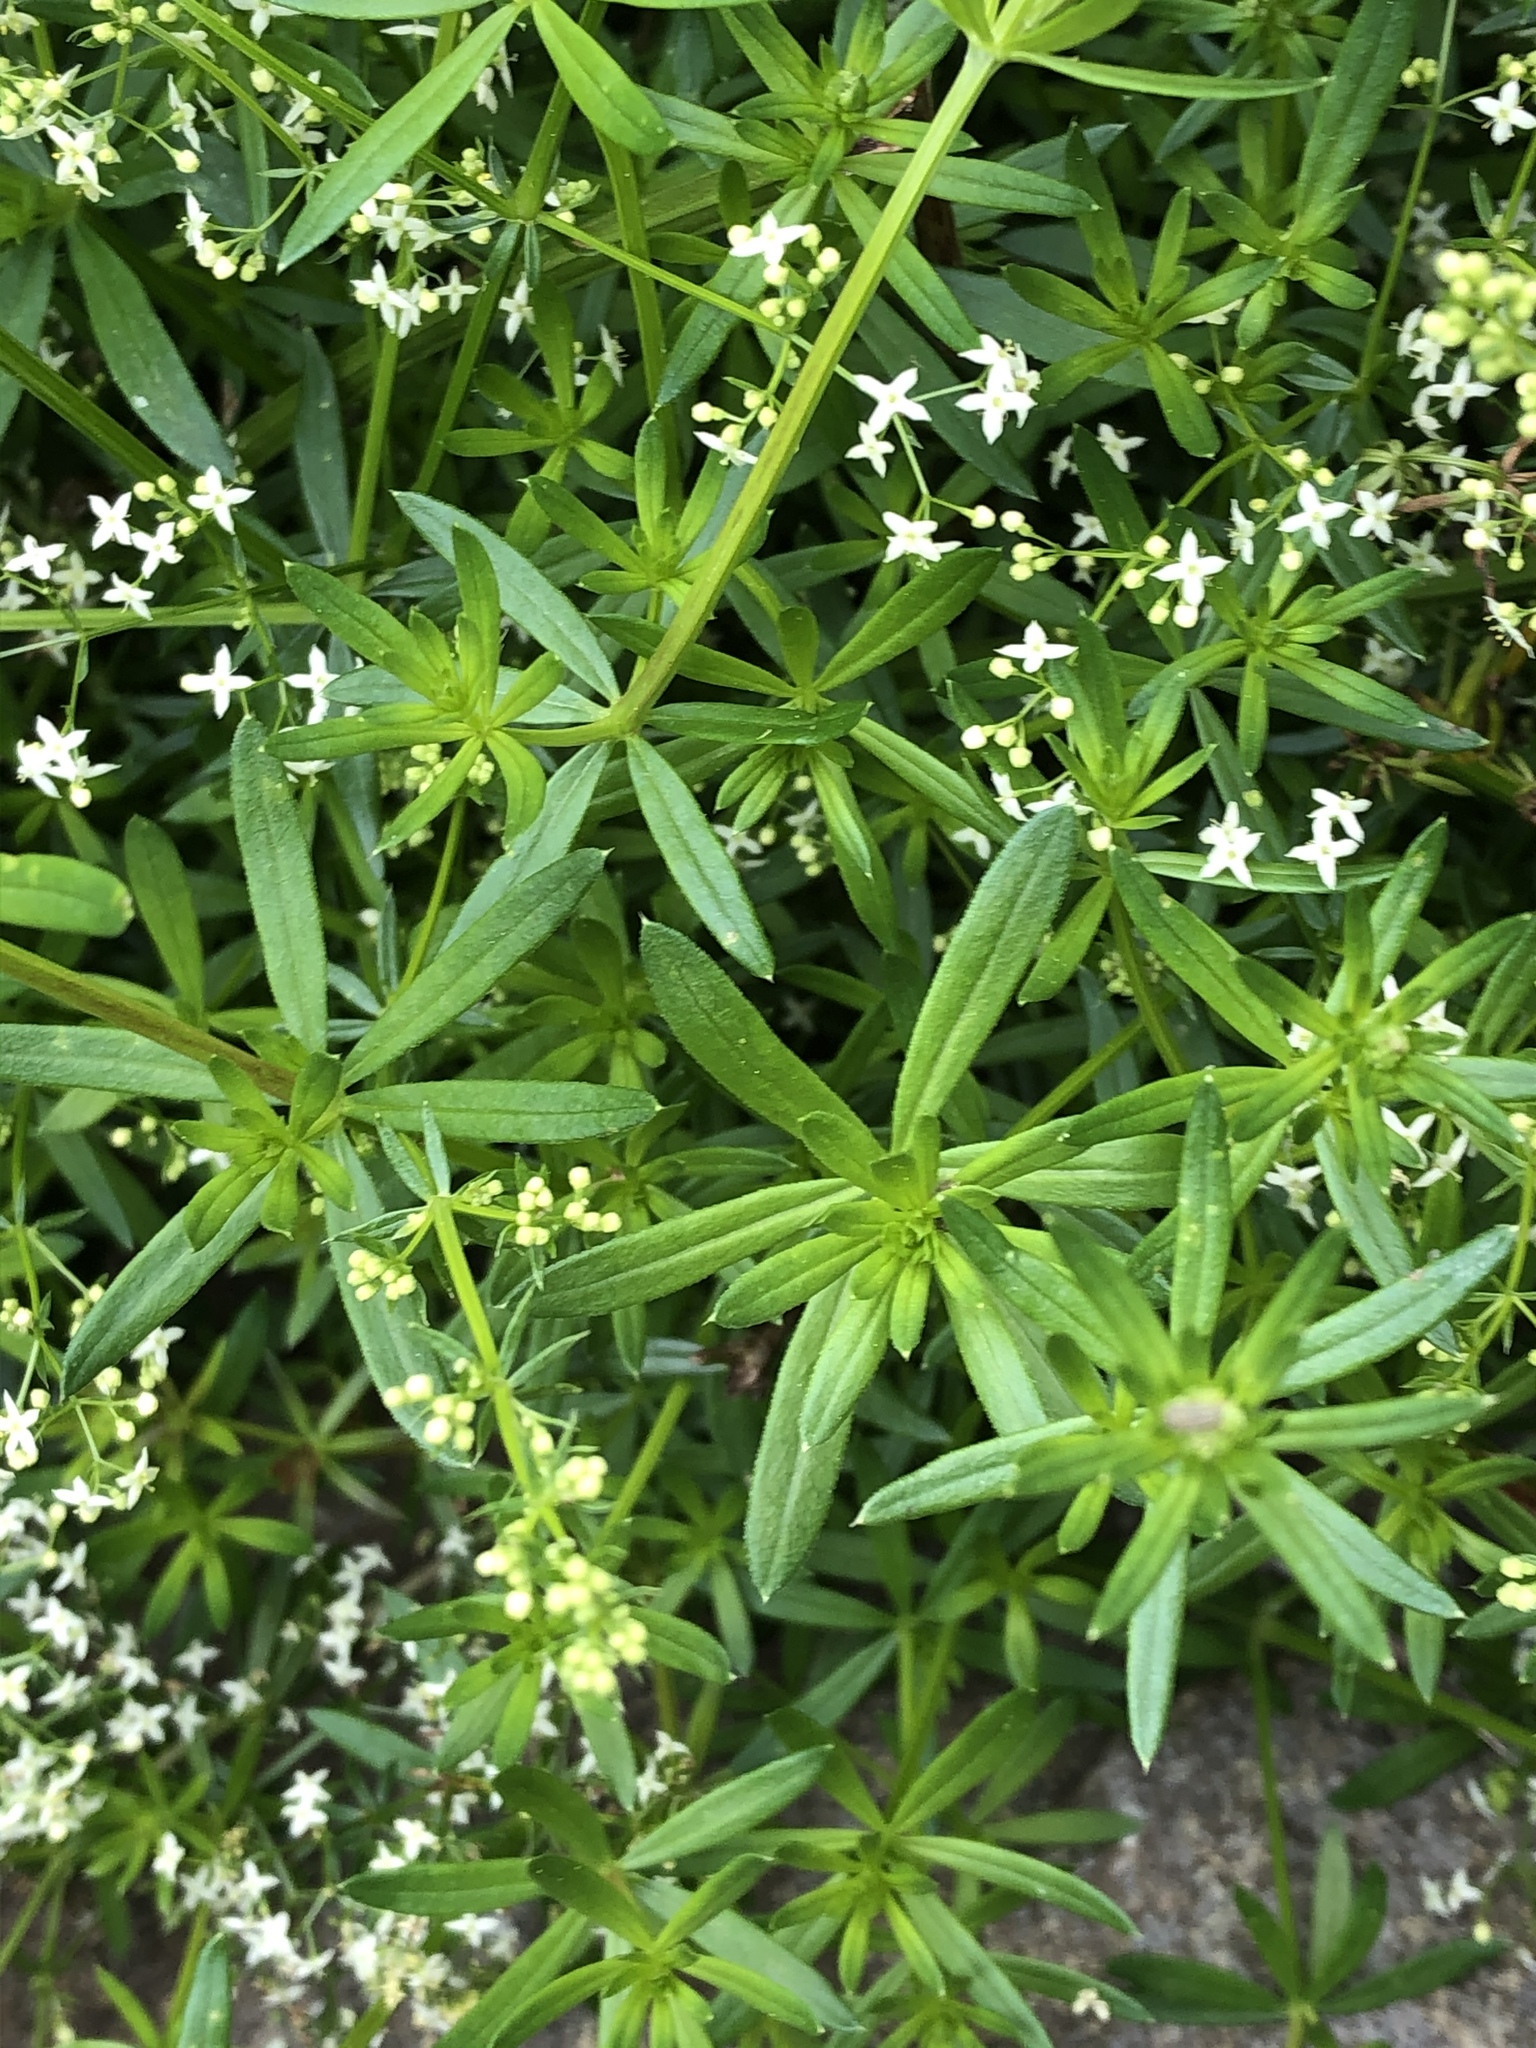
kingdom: Plantae
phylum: Tracheophyta
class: Magnoliopsida
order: Gentianales
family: Rubiaceae
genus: Galium
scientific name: Galium mollugo
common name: Hedge bedstraw
